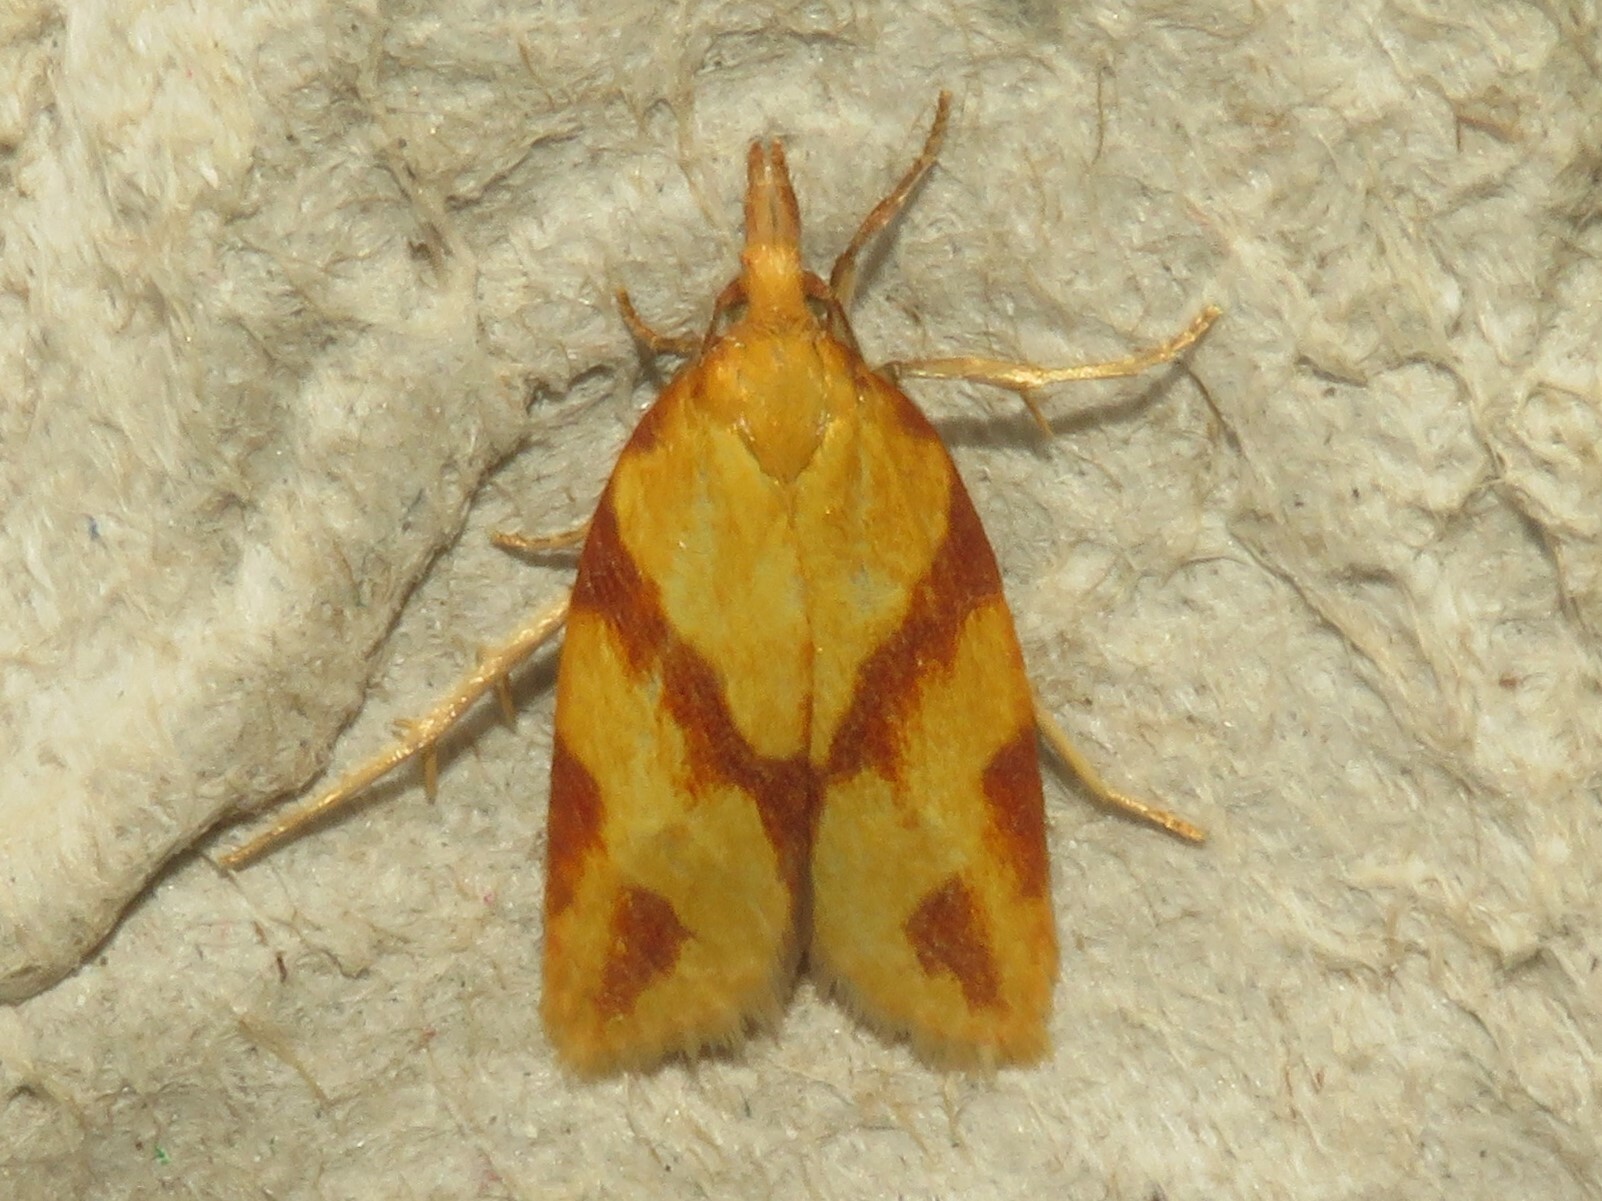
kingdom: Animalia
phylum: Arthropoda
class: Insecta
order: Lepidoptera
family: Tortricidae
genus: Sparganothis
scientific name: Sparganothis unifasciana
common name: One-lined sparganothis moth
